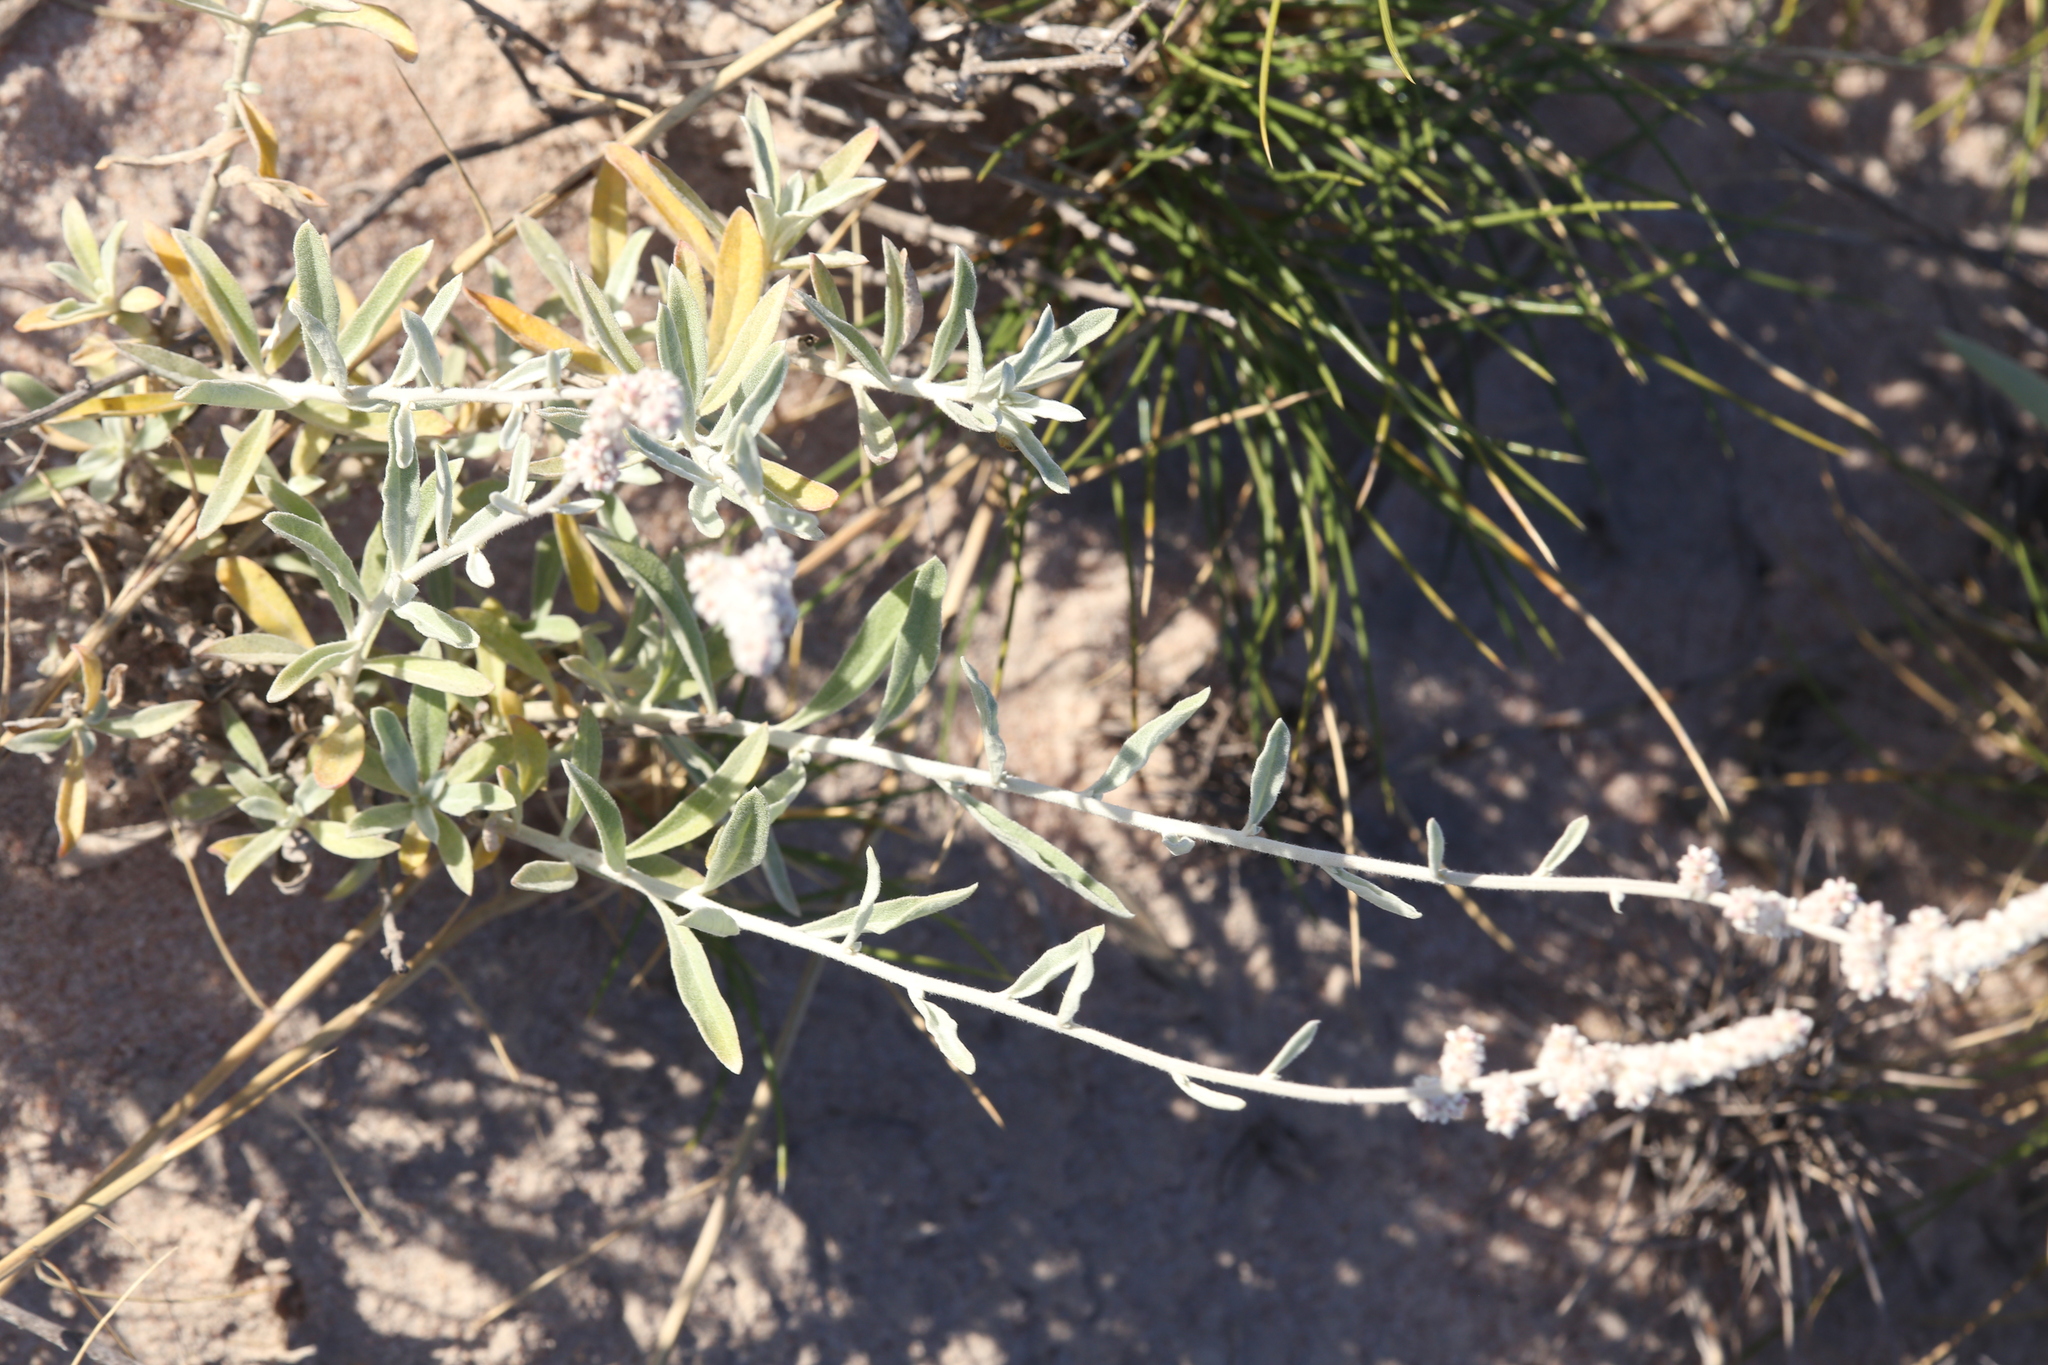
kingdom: Plantae
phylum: Tracheophyta
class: Magnoliopsida
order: Caryophyllales
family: Amaranthaceae
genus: Aerva
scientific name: Aerva javanica
